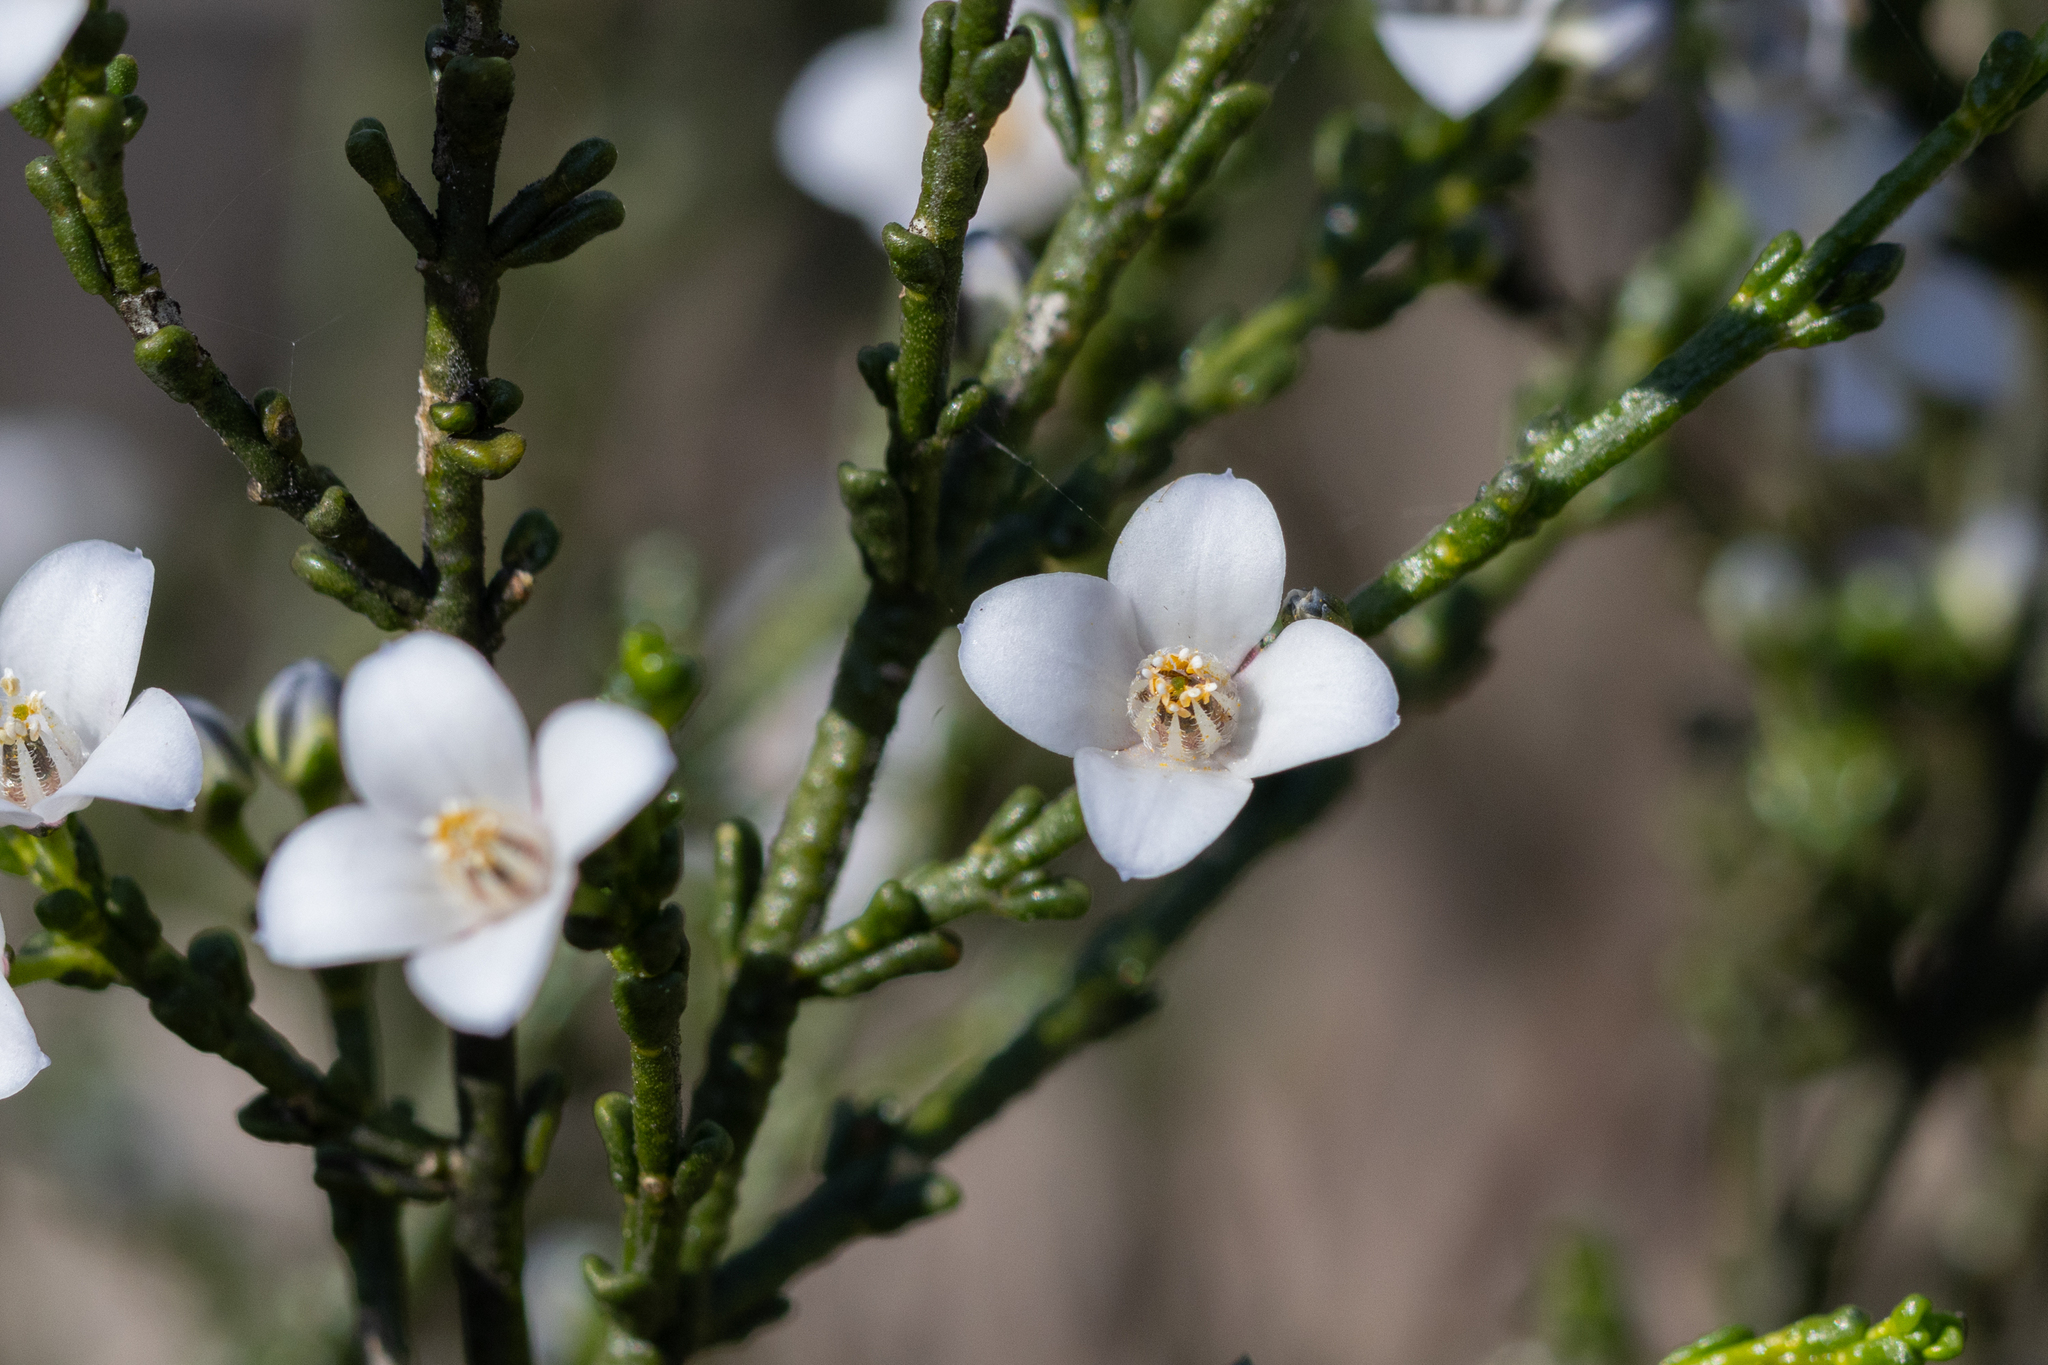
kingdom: Plantae
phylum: Tracheophyta
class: Magnoliopsida
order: Sapindales
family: Rutaceae
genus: Cyanothamnus
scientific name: Cyanothamnus coerulescens
